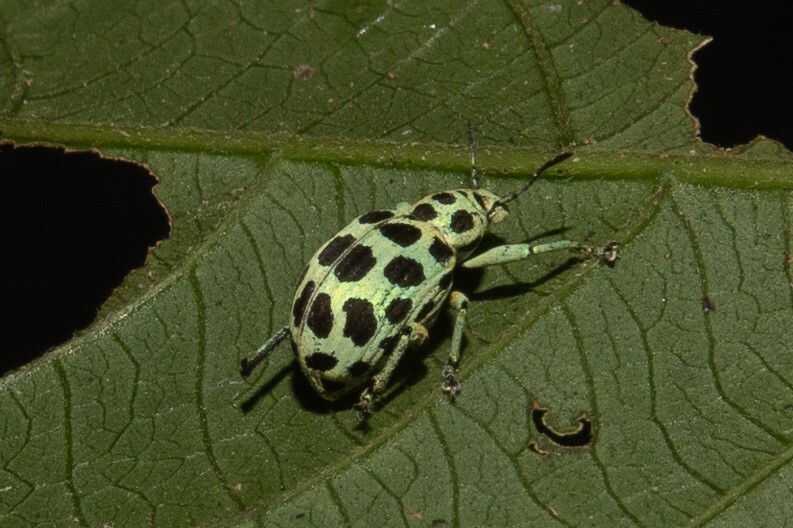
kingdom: Animalia
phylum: Arthropoda
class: Insecta
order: Coleoptera
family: Curculionidae
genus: Cydianerus
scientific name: Cydianerus ornatus
